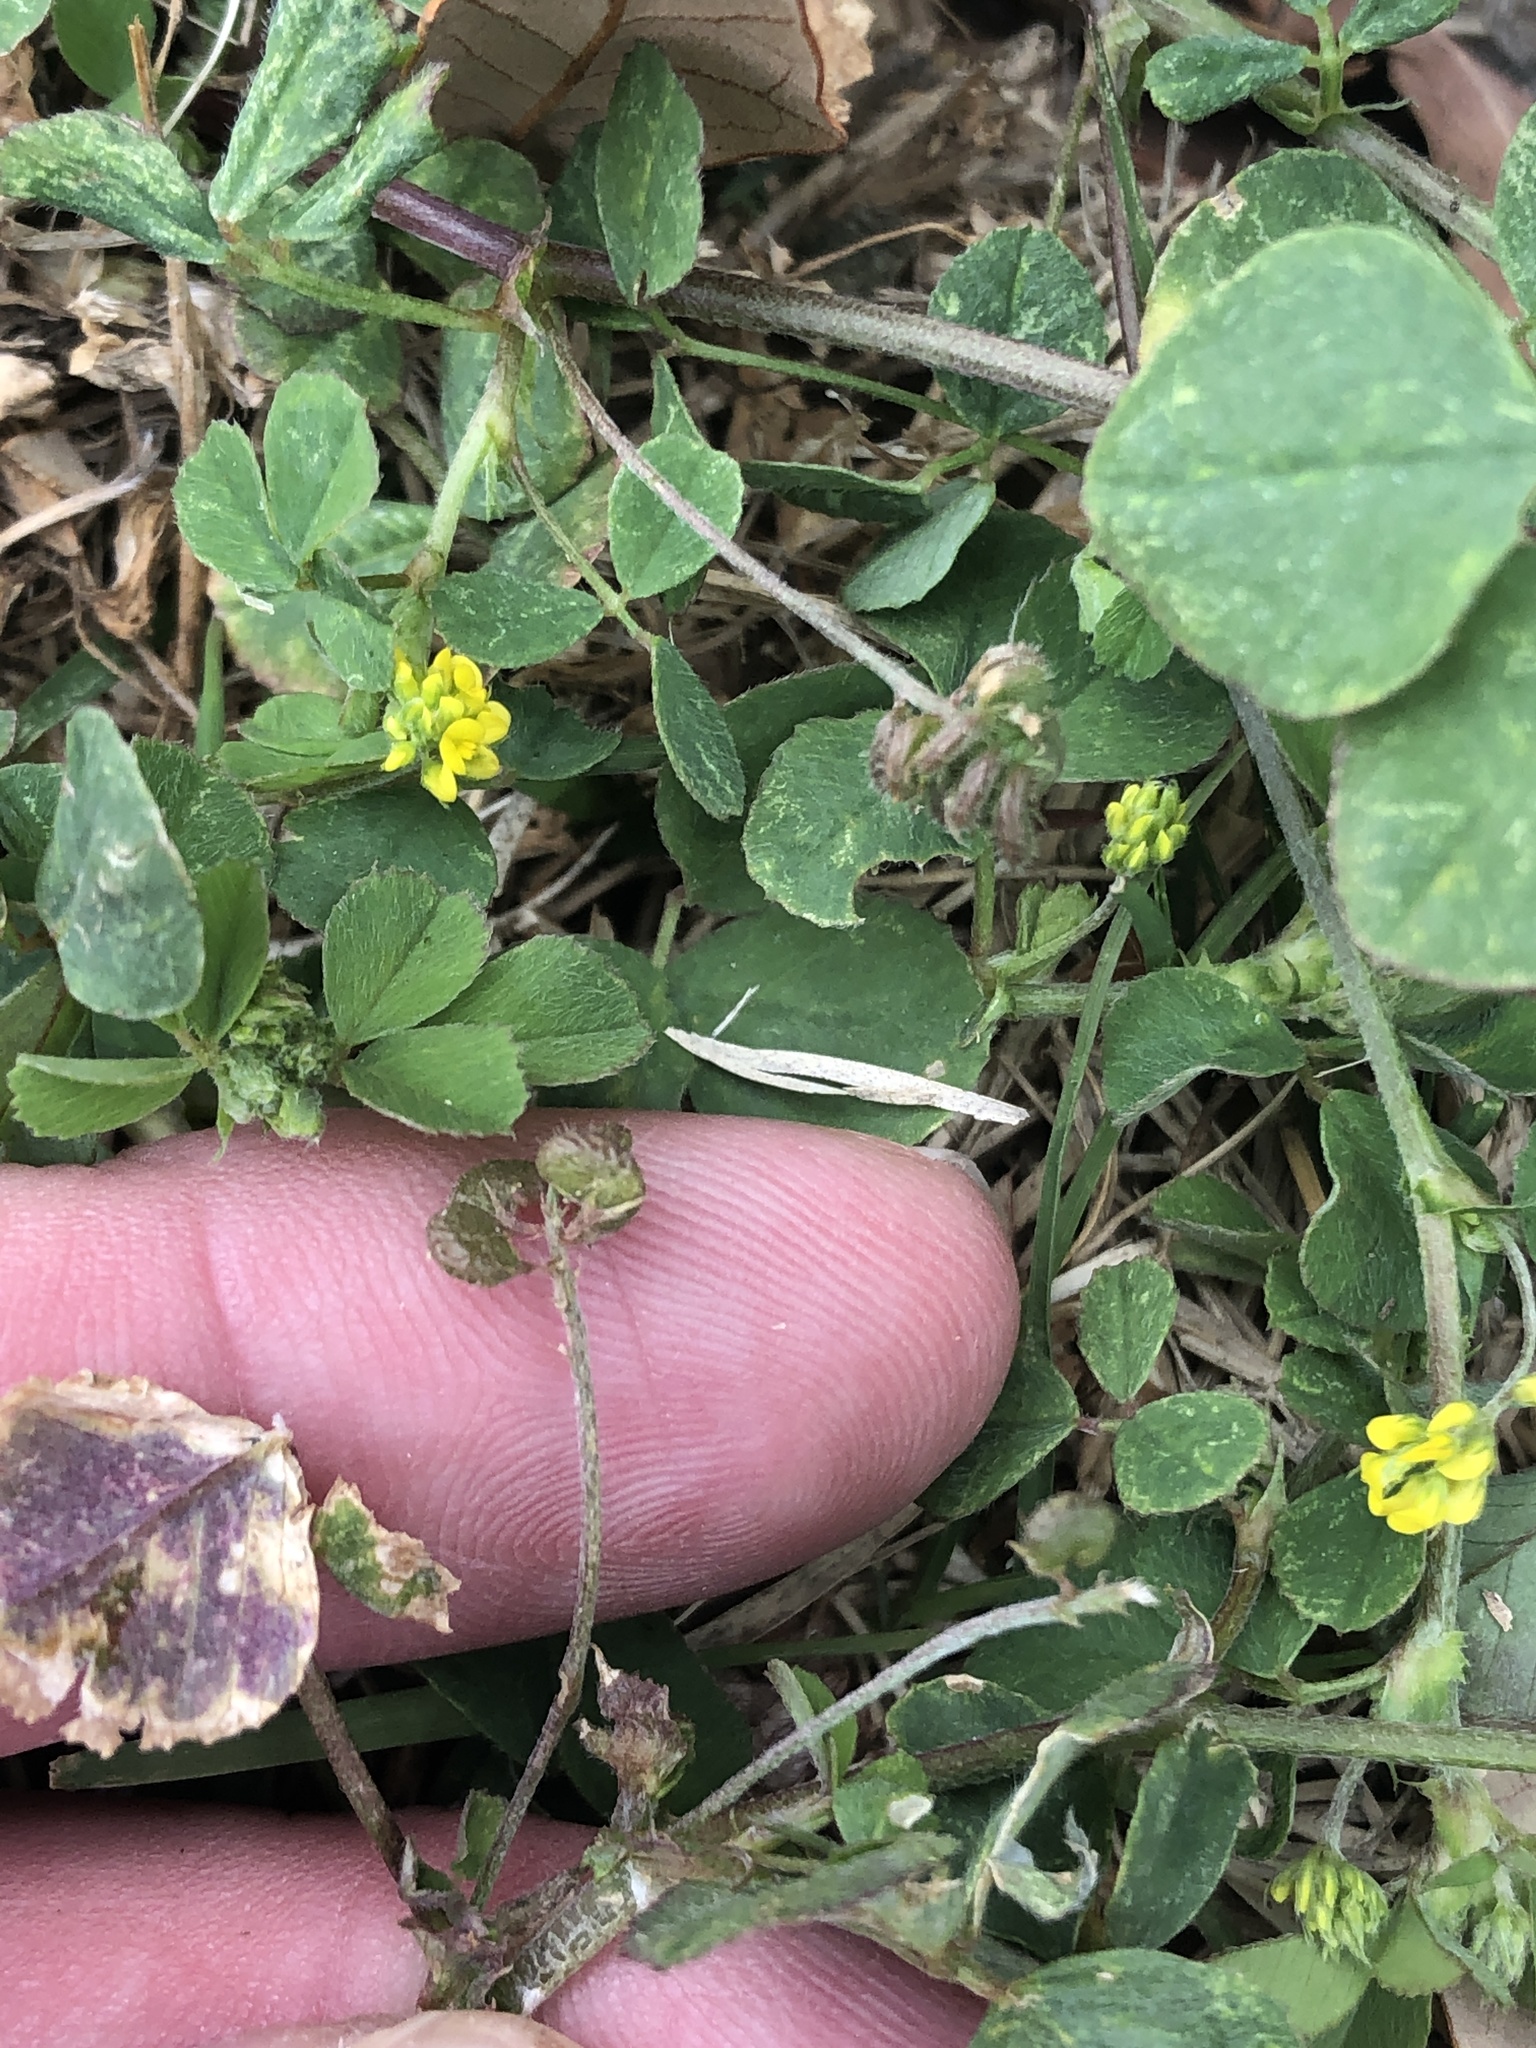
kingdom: Plantae
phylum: Tracheophyta
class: Magnoliopsida
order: Fabales
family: Fabaceae
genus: Medicago
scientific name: Medicago lupulina
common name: Black medick
